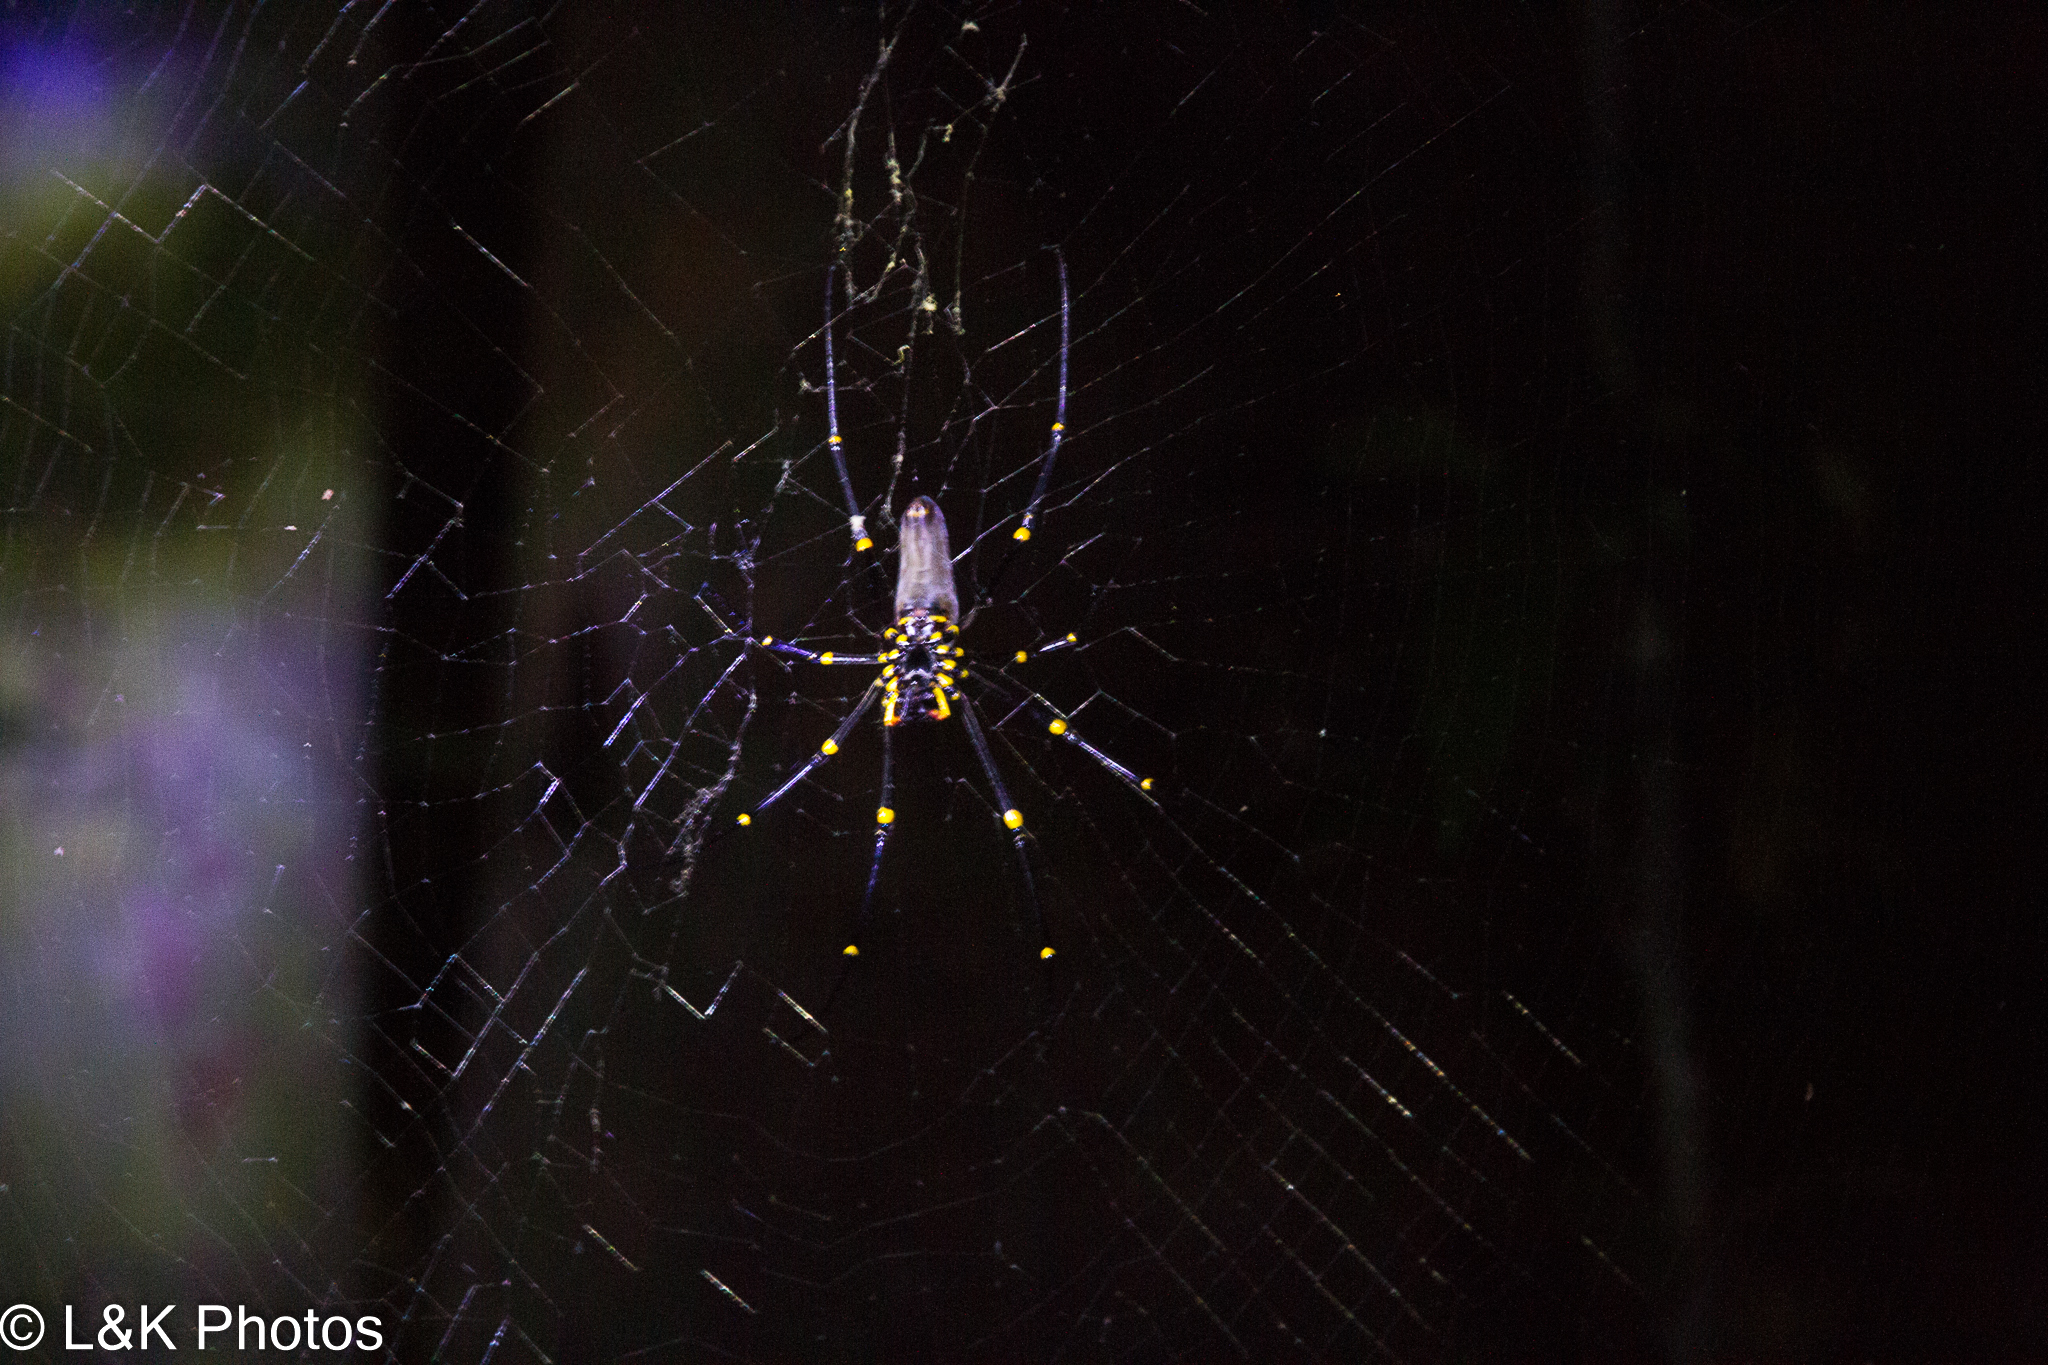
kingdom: Animalia
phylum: Arthropoda
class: Arachnida
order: Araneae
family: Araneidae
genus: Nephila
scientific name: Nephila pilipes
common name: Giant golden orb weaver
